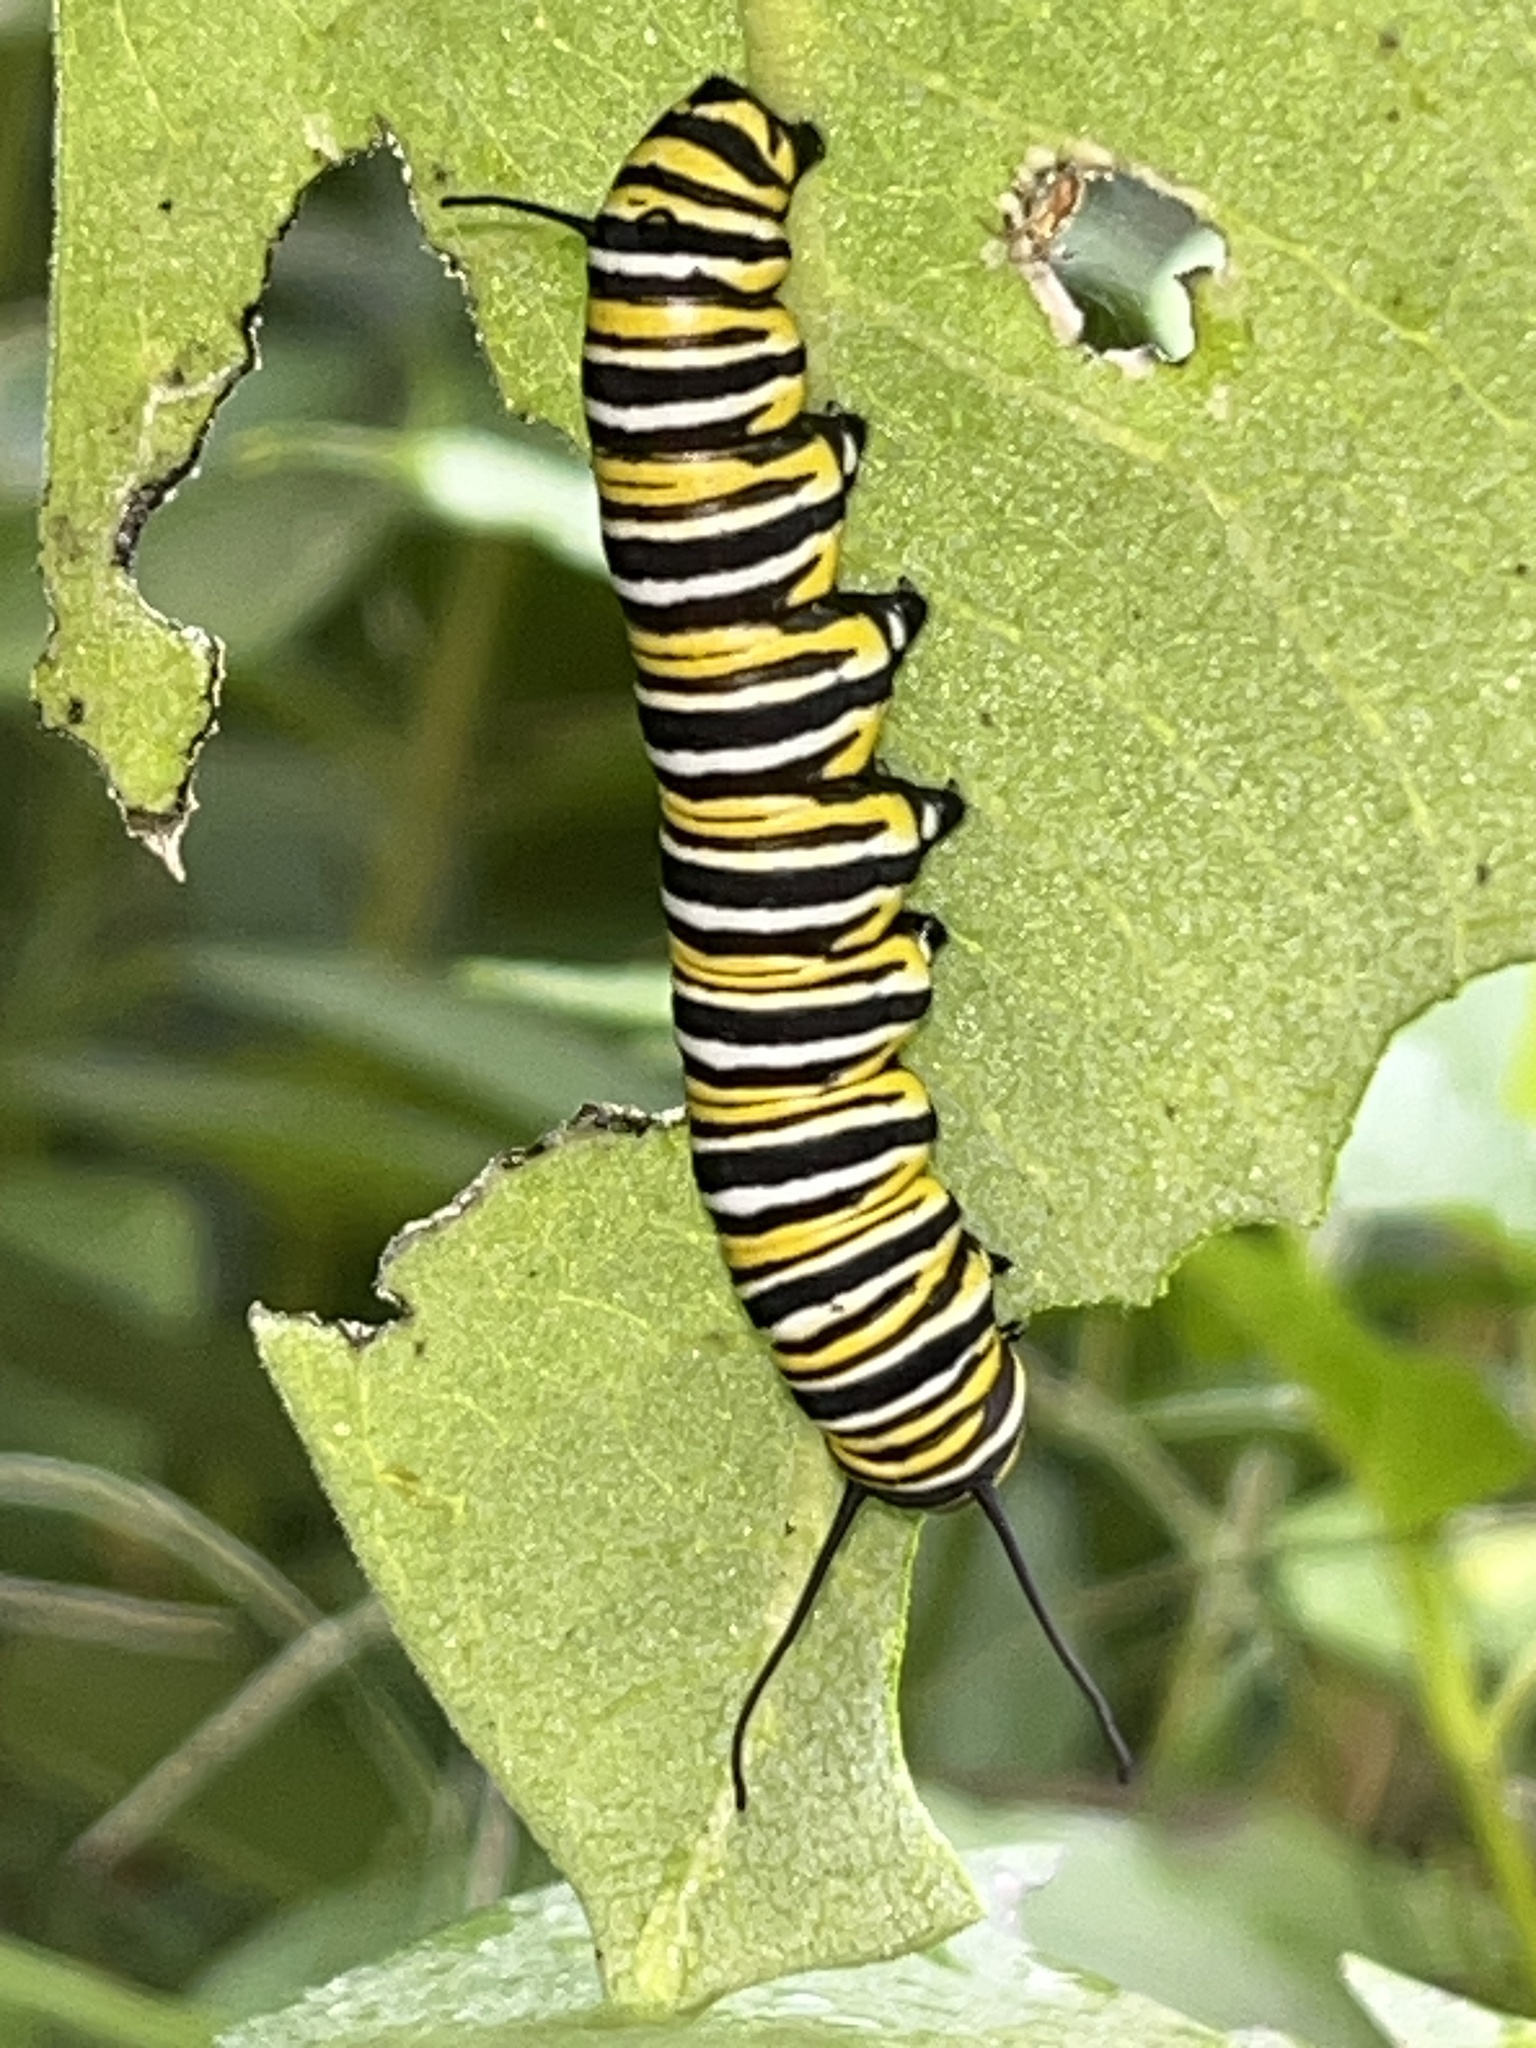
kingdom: Animalia
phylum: Arthropoda
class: Insecta
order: Lepidoptera
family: Nymphalidae
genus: Danaus
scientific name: Danaus plexippus
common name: Monarch
